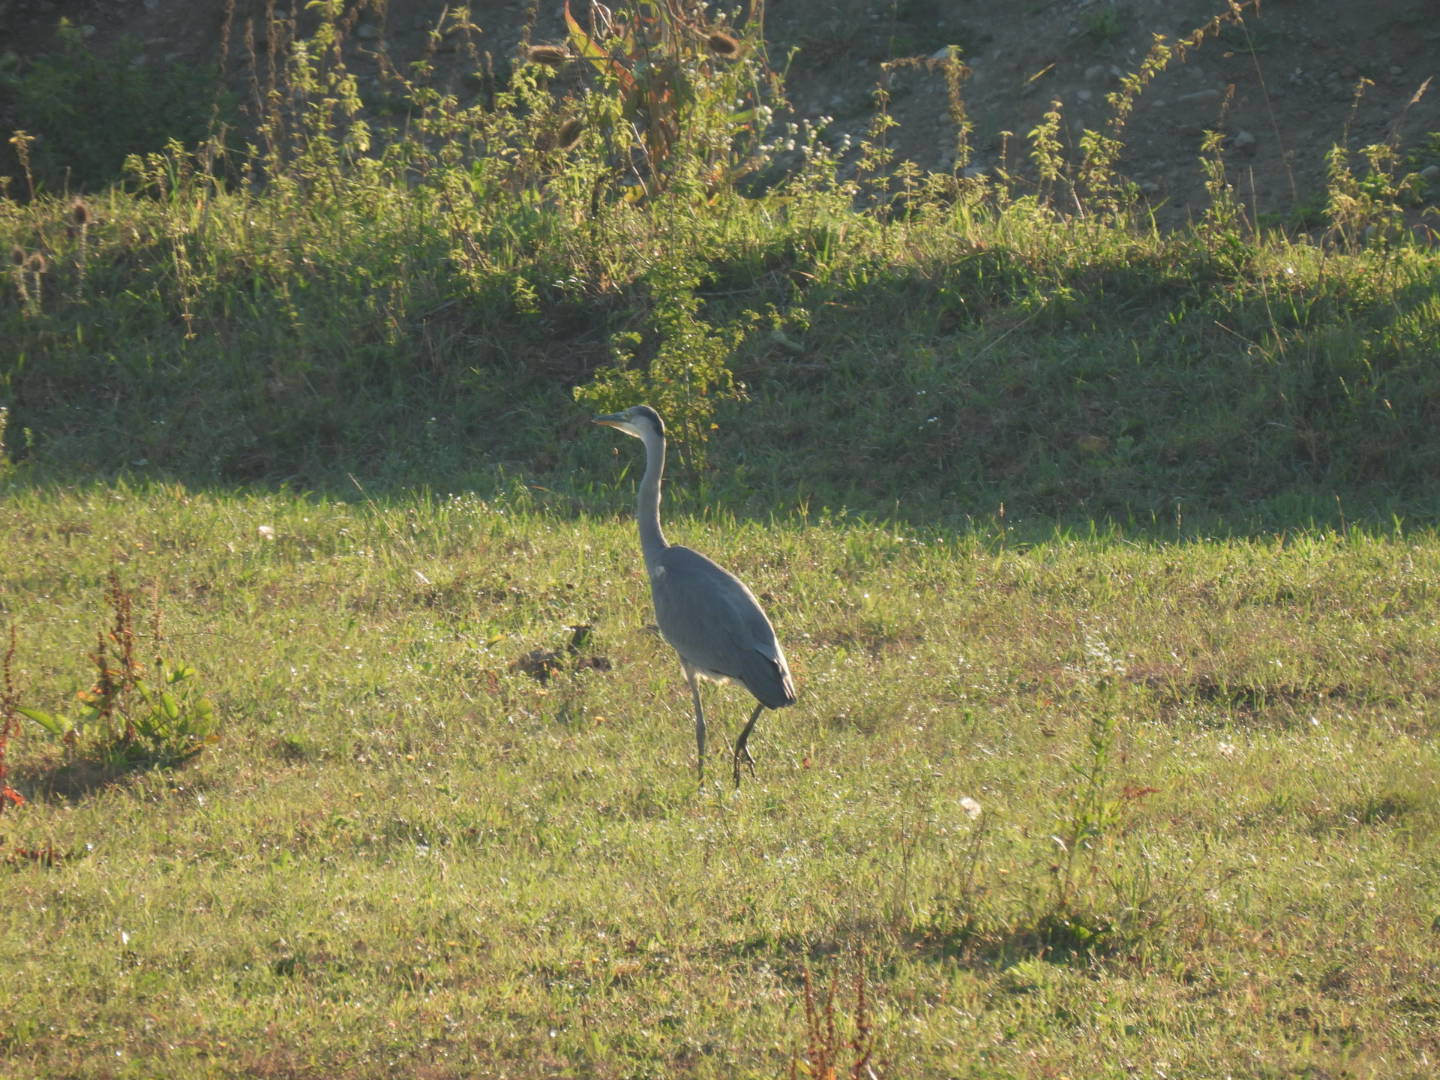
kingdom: Animalia
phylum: Chordata
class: Aves
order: Pelecaniformes
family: Ardeidae
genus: Ardea
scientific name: Ardea cinerea
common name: Grey heron
